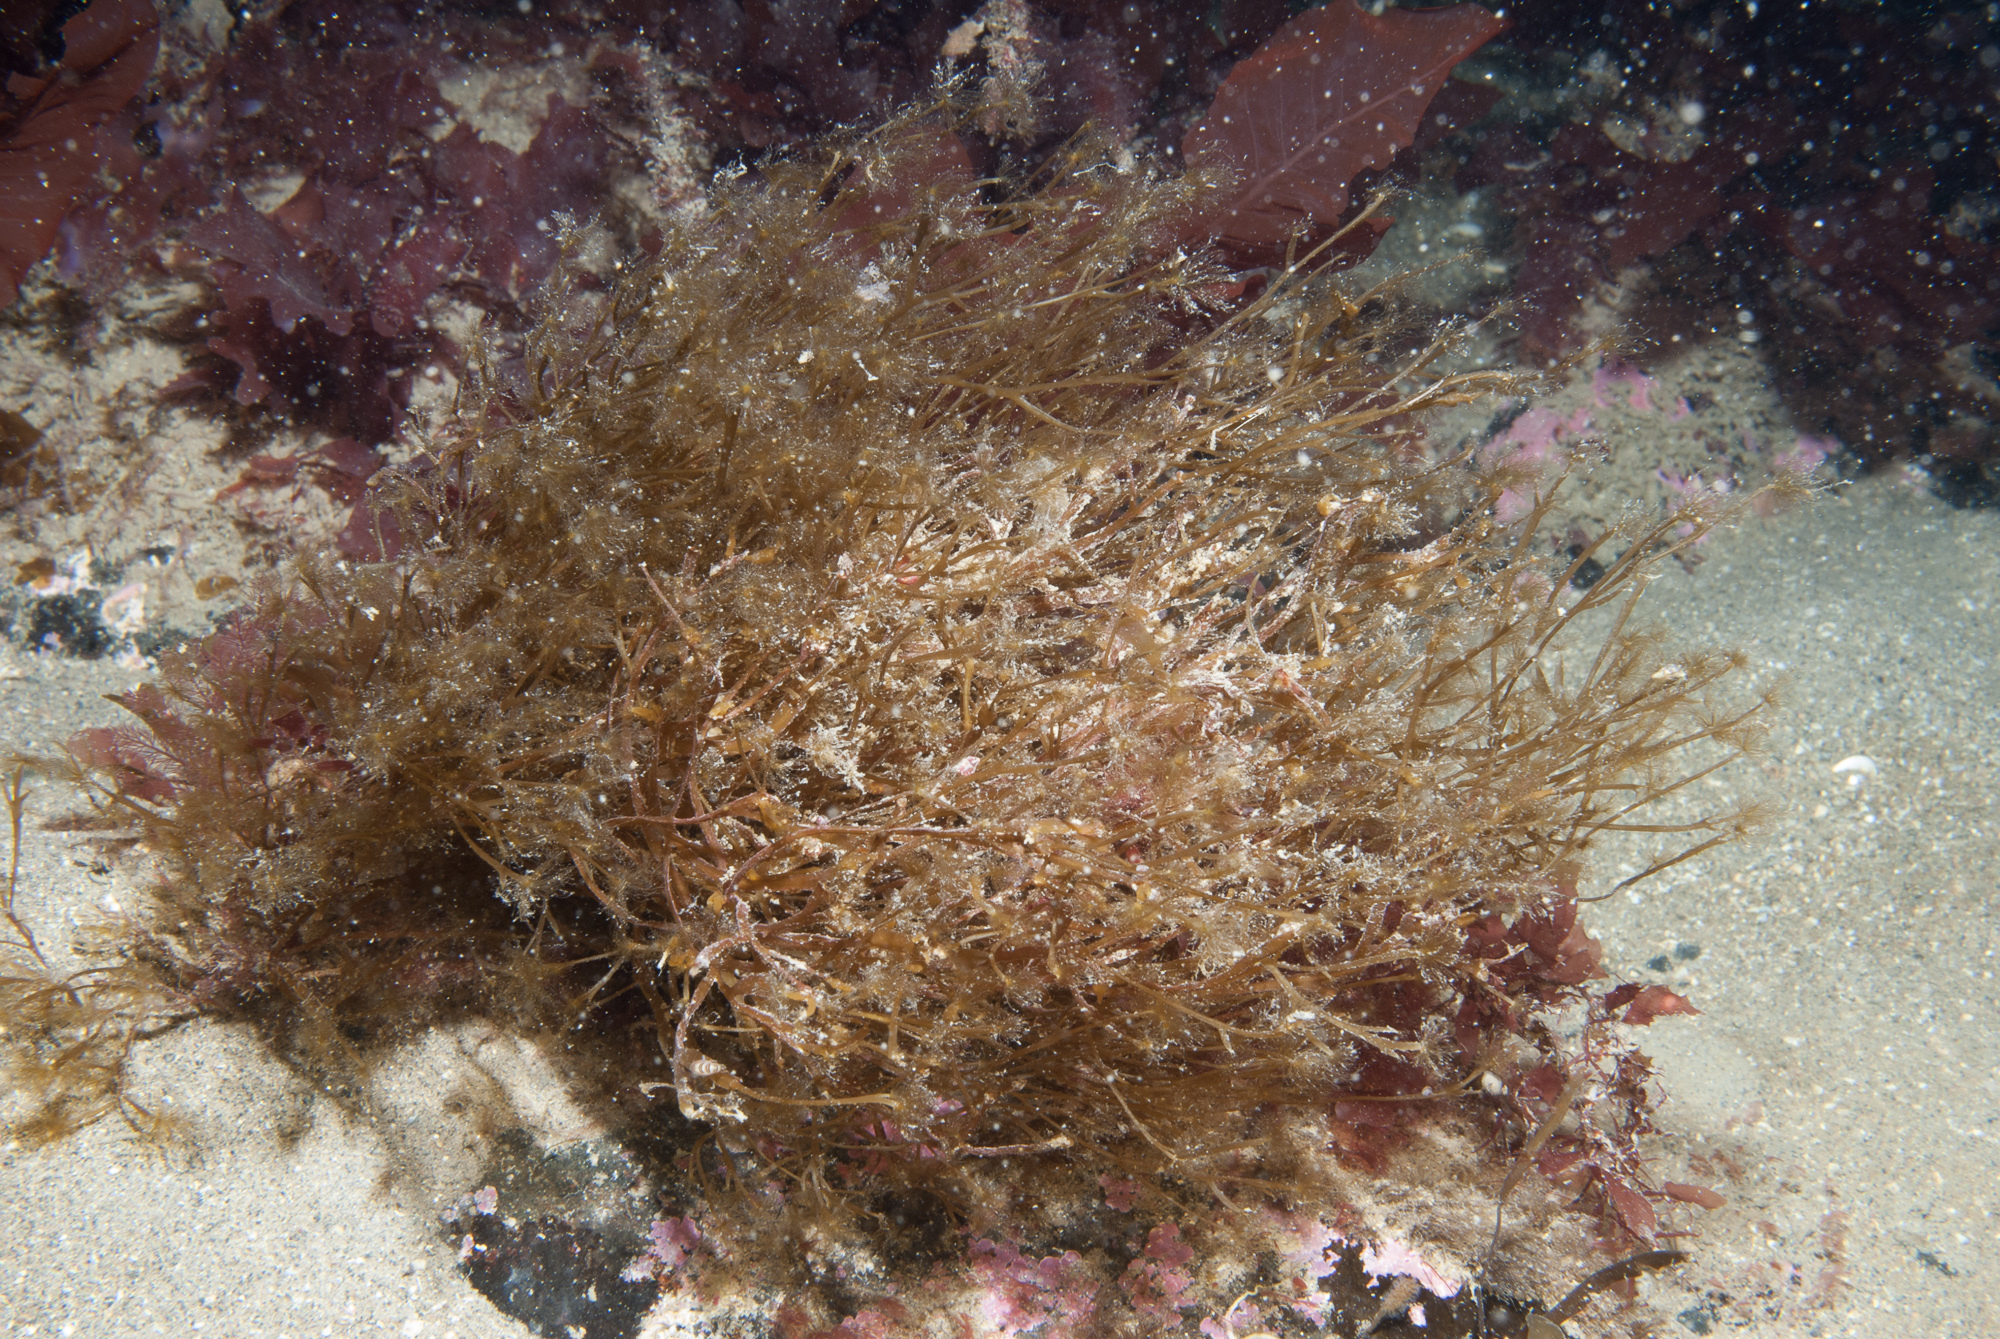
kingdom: Chromista
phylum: Ochrophyta
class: Phaeophyceae
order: Sporochnales
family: Sporochnaceae
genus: Carpomitra
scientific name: Carpomitra costata
